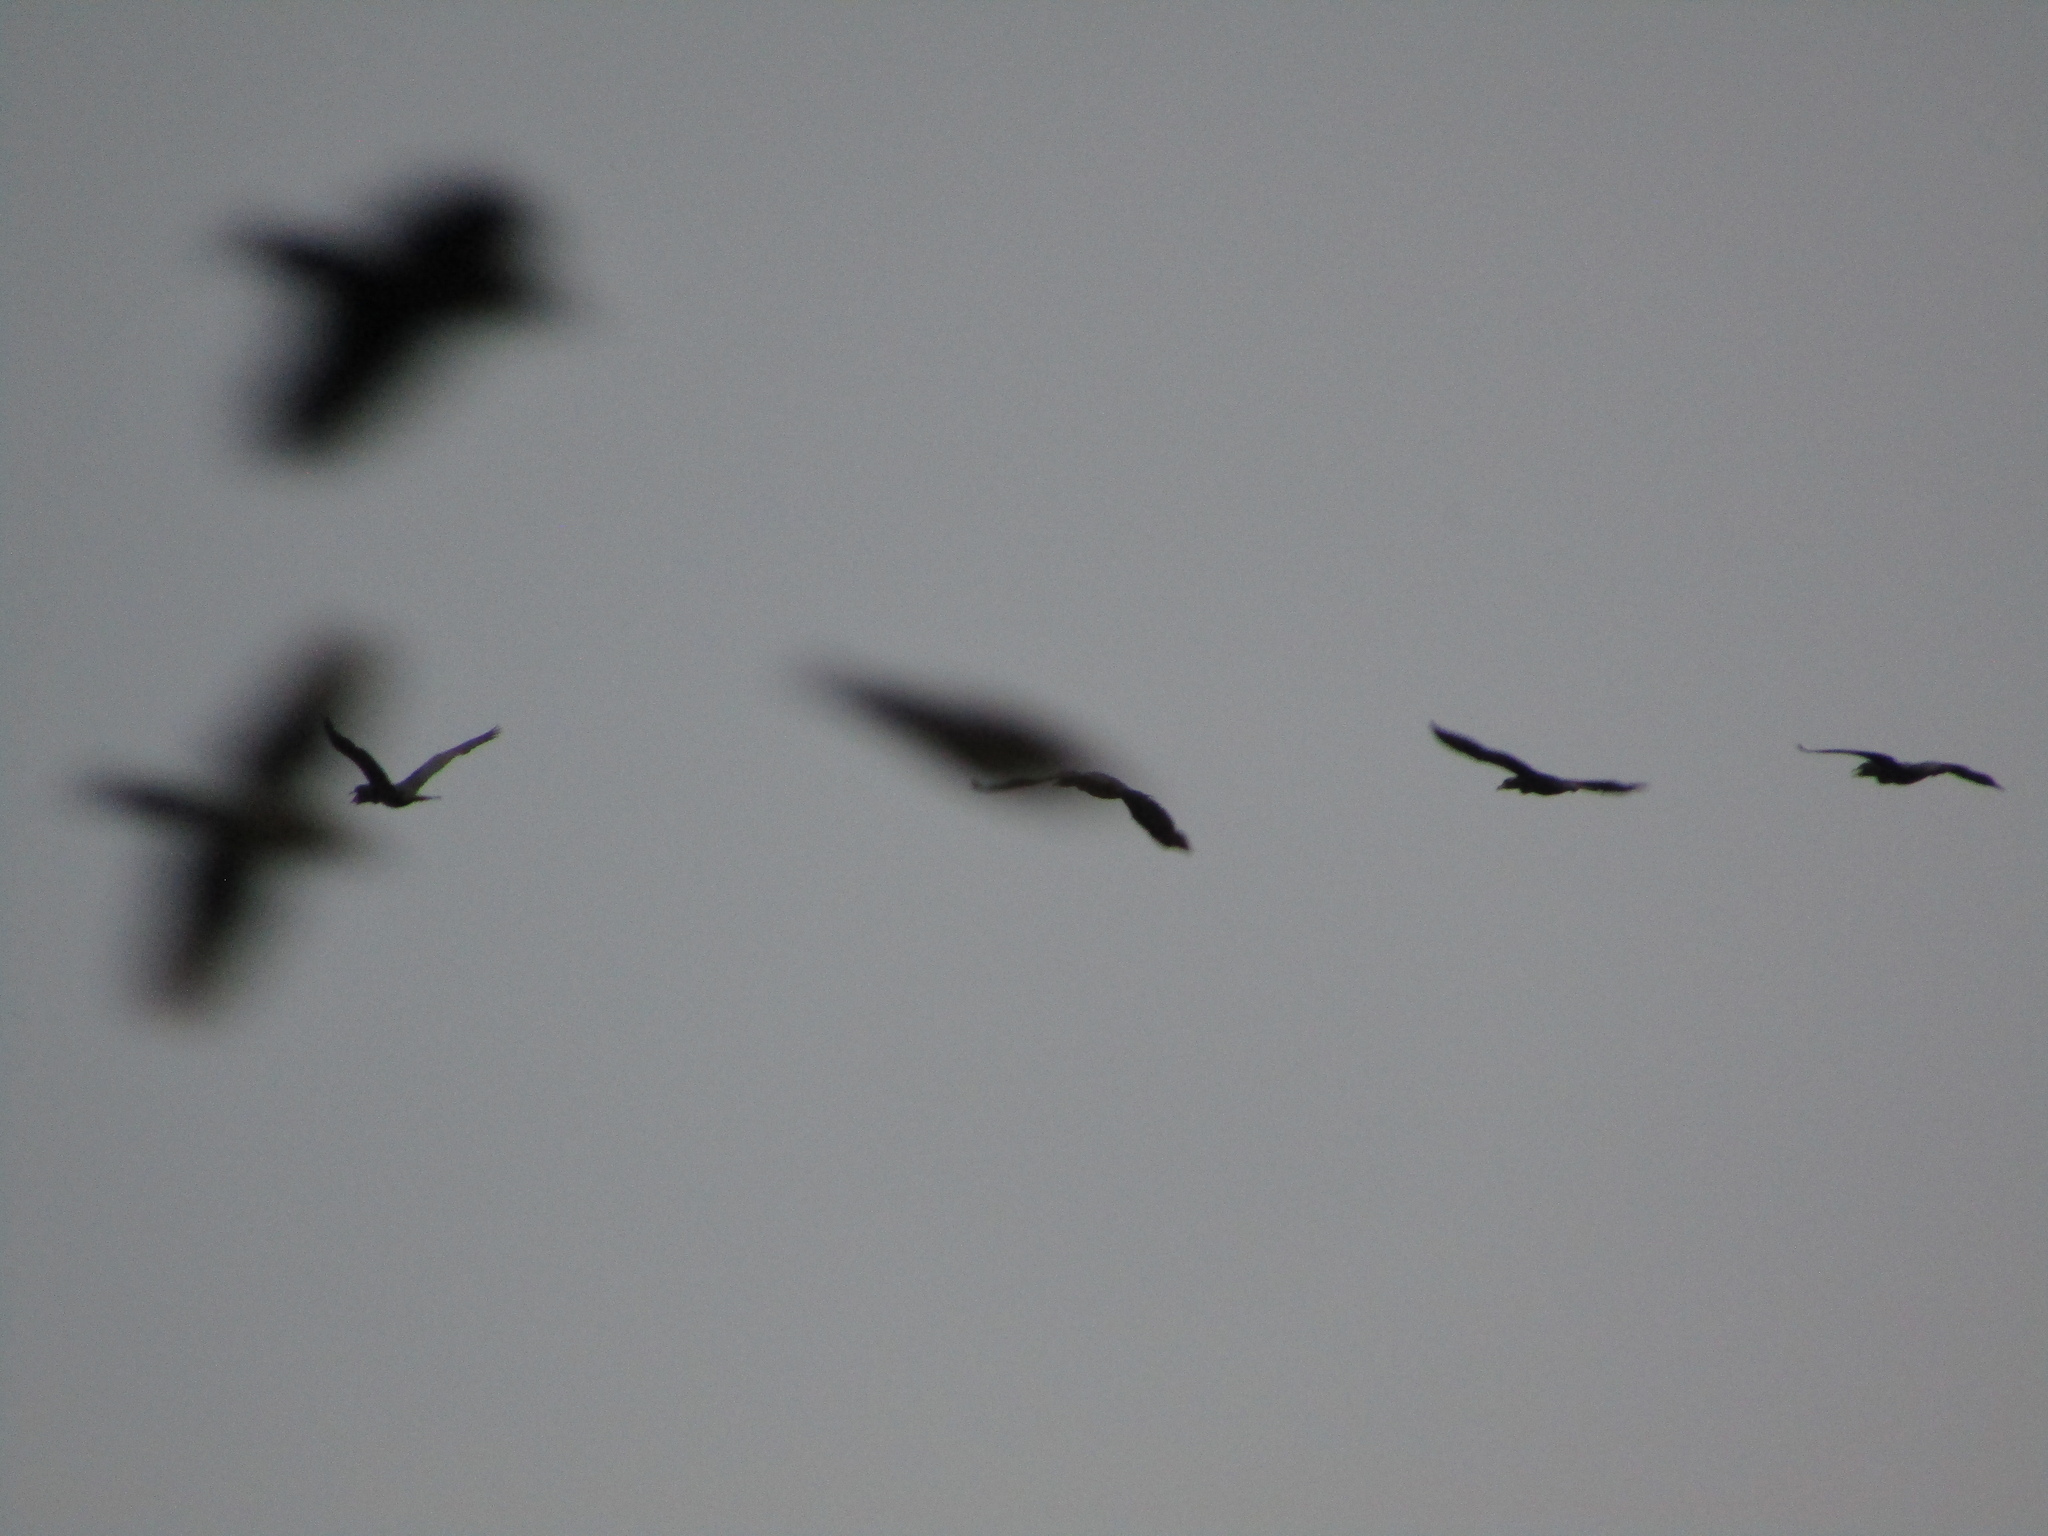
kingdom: Animalia
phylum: Chordata
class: Aves
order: Suliformes
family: Phalacrocoracidae
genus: Phalacrocorax
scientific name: Phalacrocorax brasilianus
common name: Neotropic cormorant
